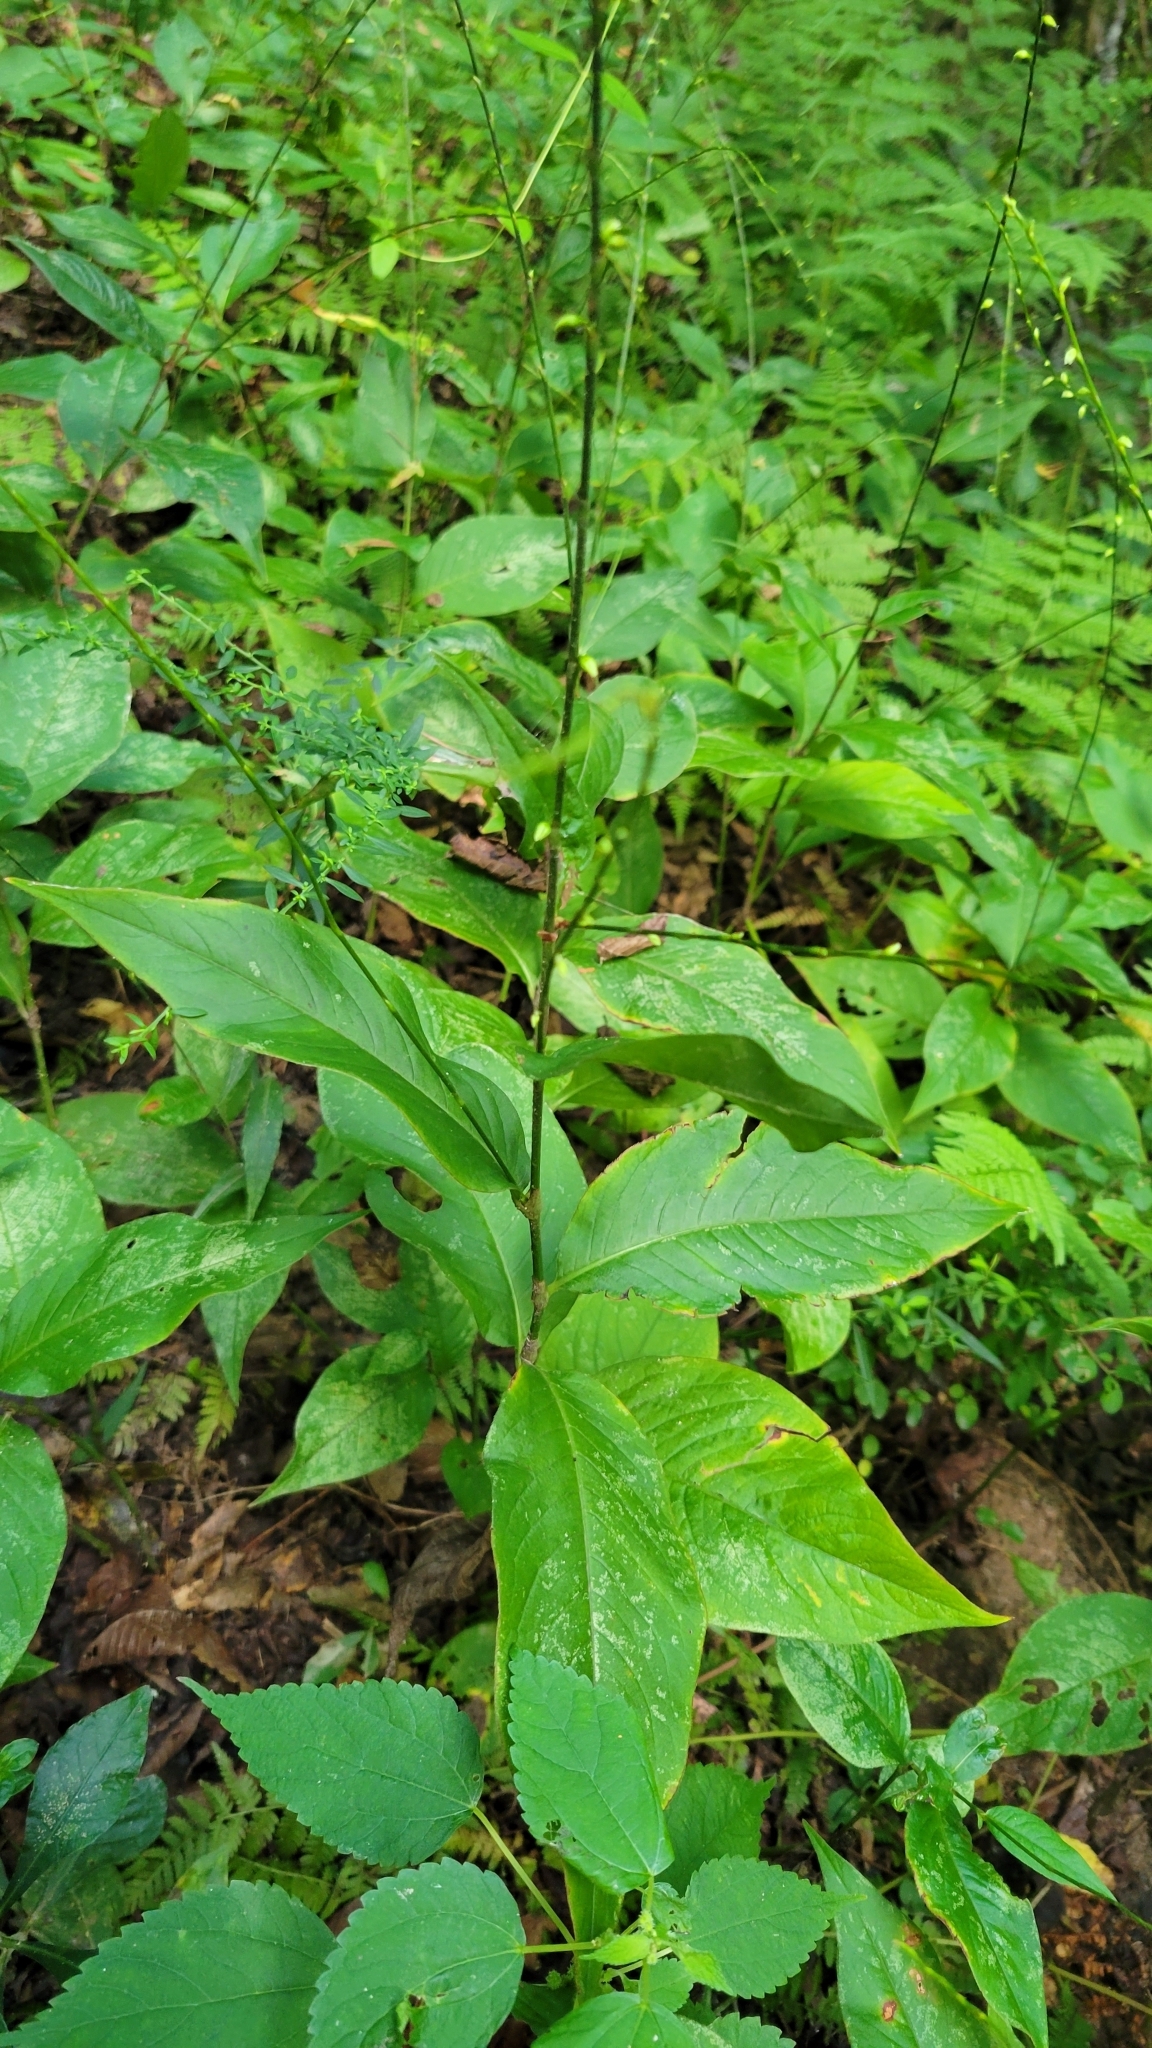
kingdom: Plantae
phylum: Tracheophyta
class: Magnoliopsida
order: Caryophyllales
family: Polygonaceae
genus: Persicaria
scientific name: Persicaria virginiana
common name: Jumpseed
